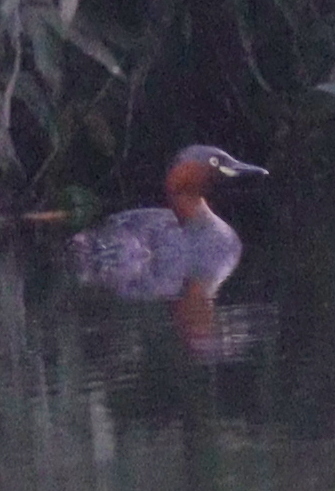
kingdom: Animalia
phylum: Chordata
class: Aves
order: Podicipediformes
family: Podicipedidae
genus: Tachybaptus
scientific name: Tachybaptus ruficollis
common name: Little grebe
